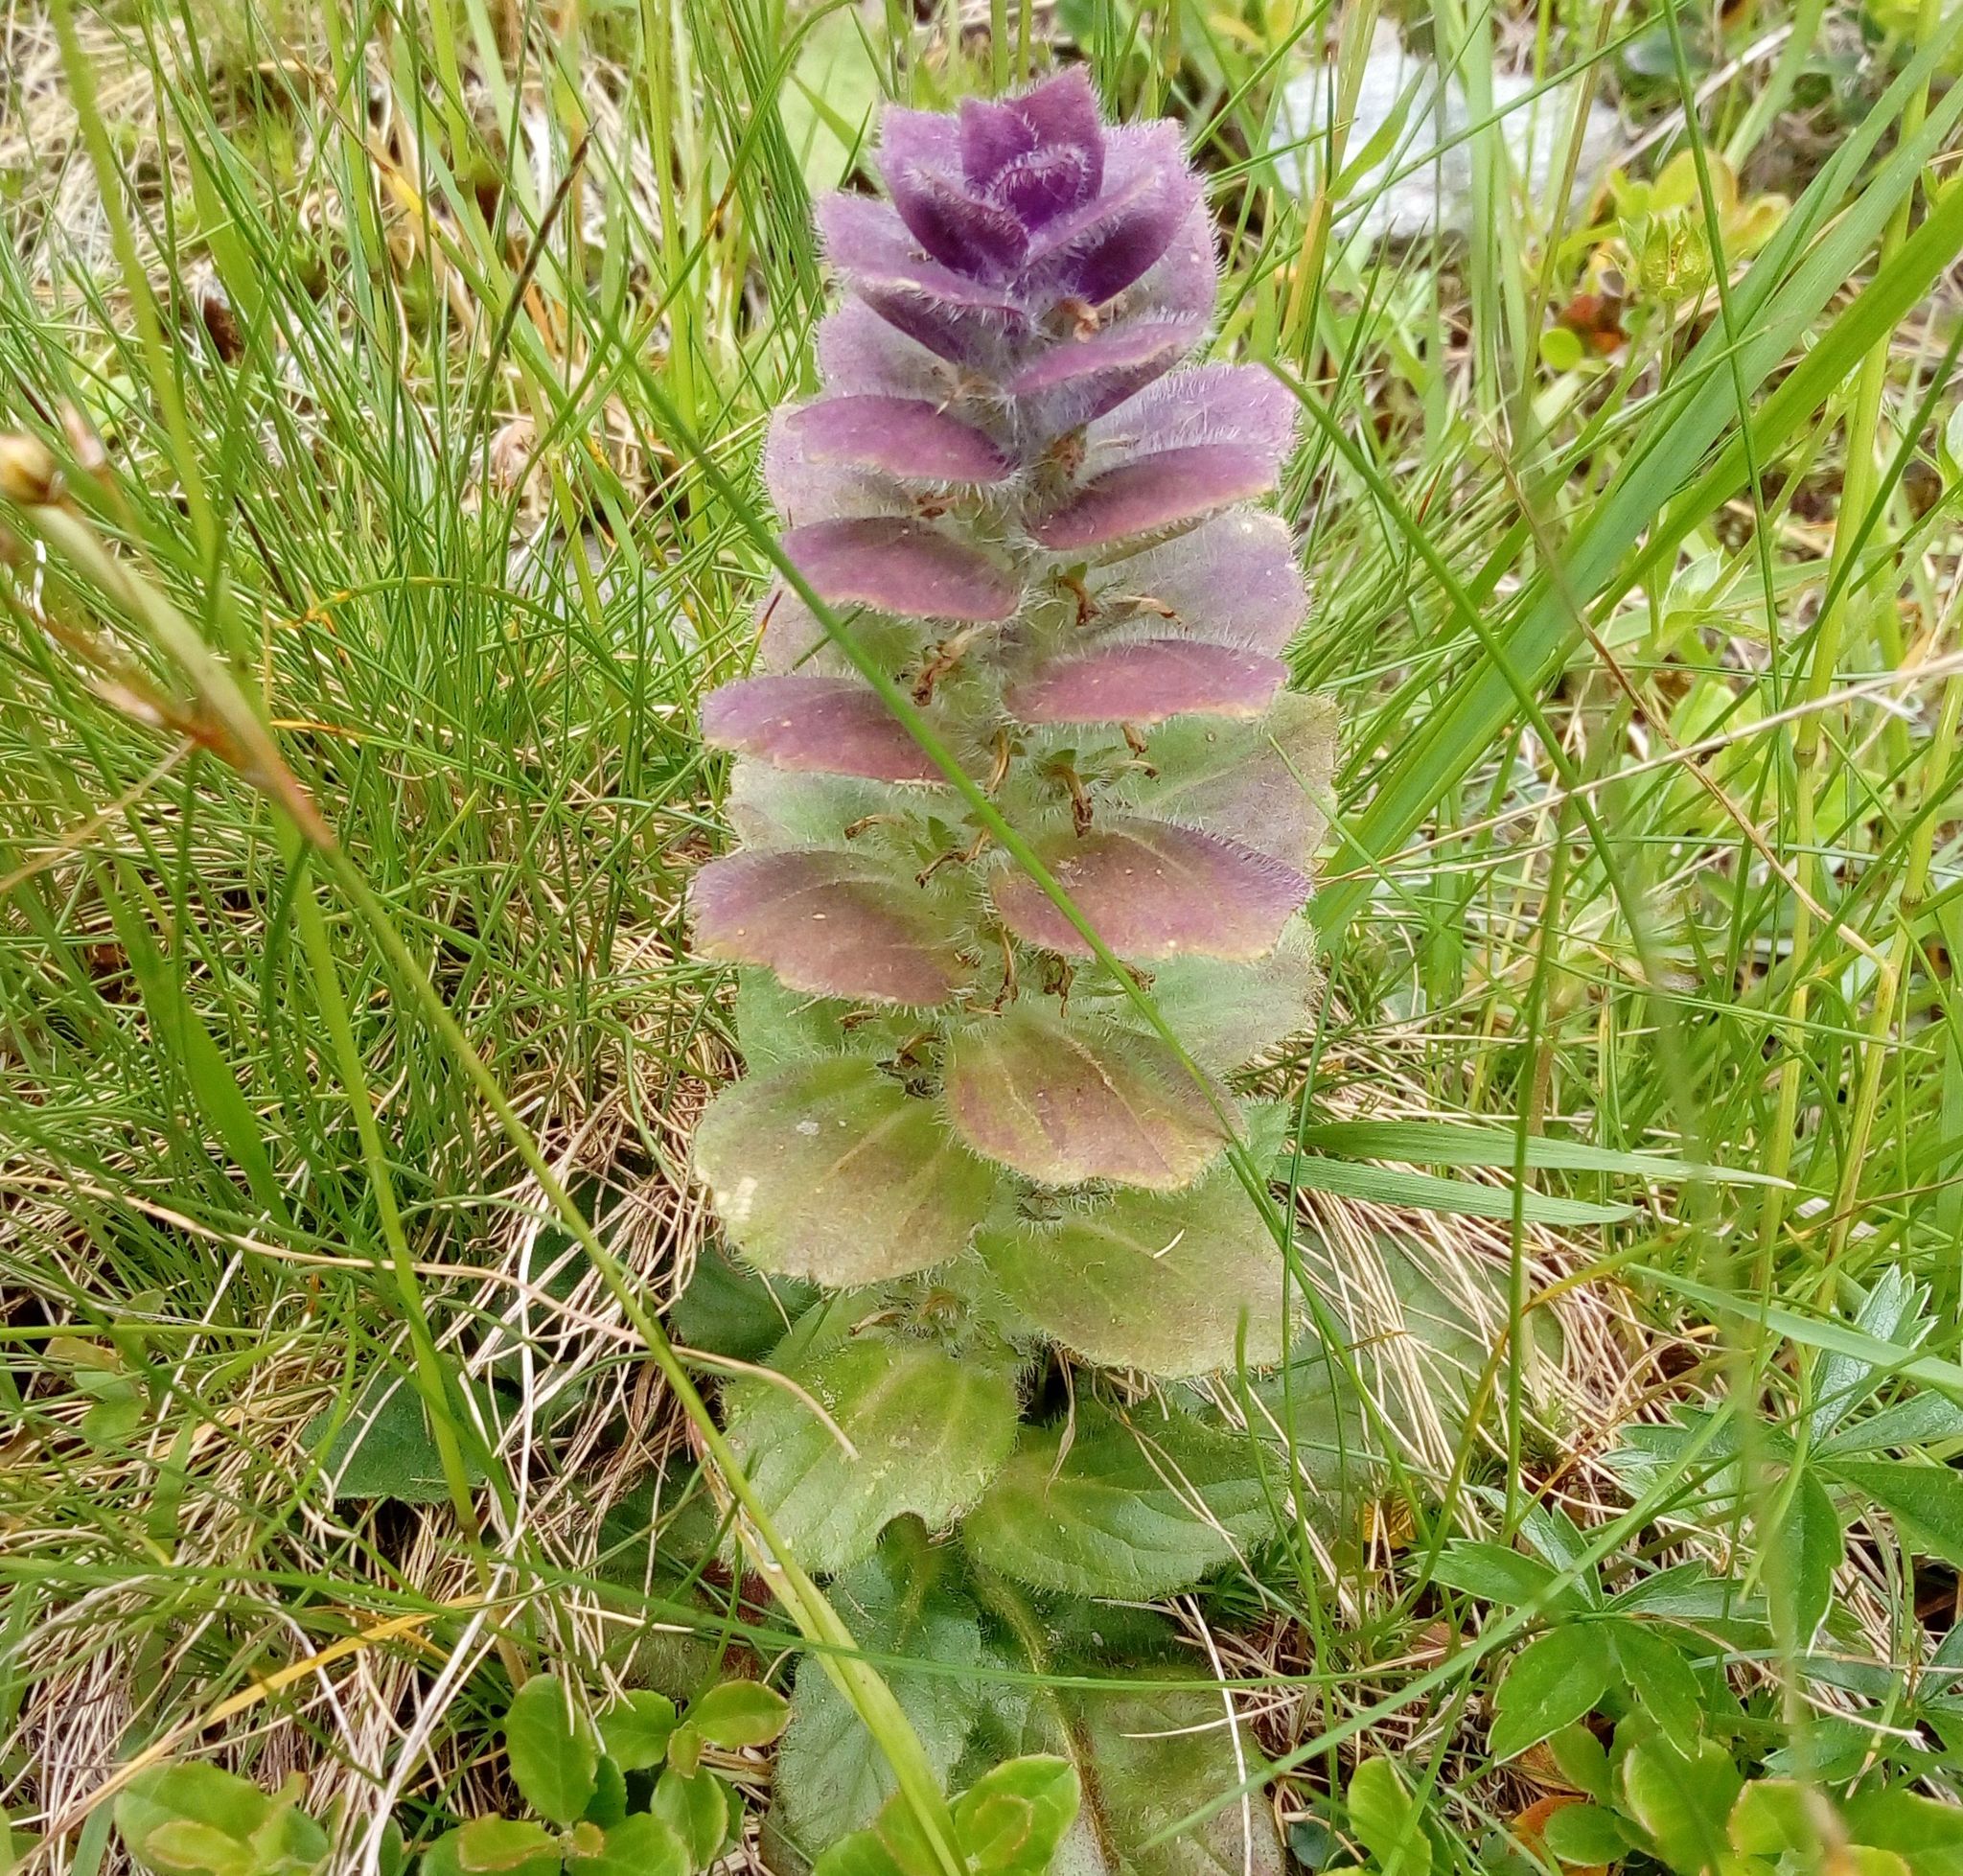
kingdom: Plantae
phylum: Tracheophyta
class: Magnoliopsida
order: Lamiales
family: Lamiaceae
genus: Ajuga
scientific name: Ajuga pyramidalis
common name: Pyramid bugle
